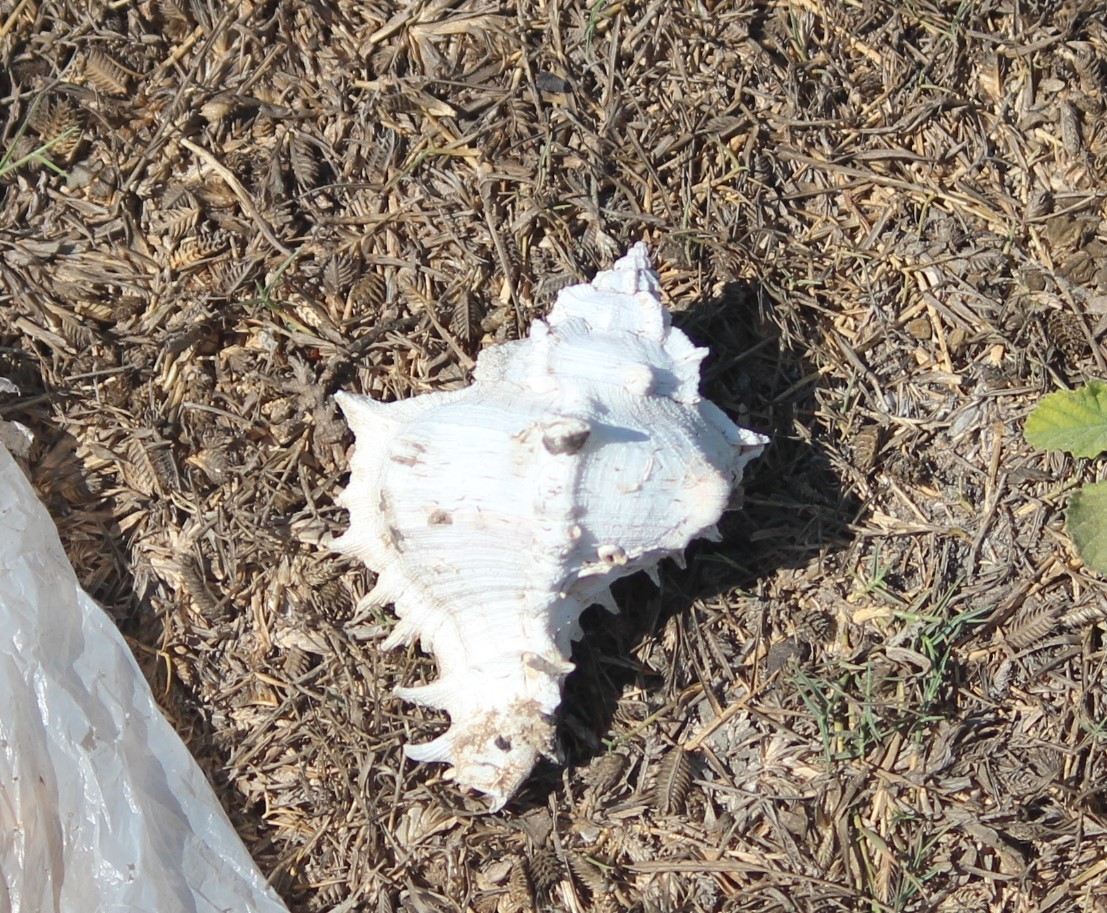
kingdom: Animalia
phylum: Mollusca
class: Gastropoda
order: Neogastropoda
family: Muricidae
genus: Chicoreus
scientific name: Chicoreus virgineus
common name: Virgin murex
